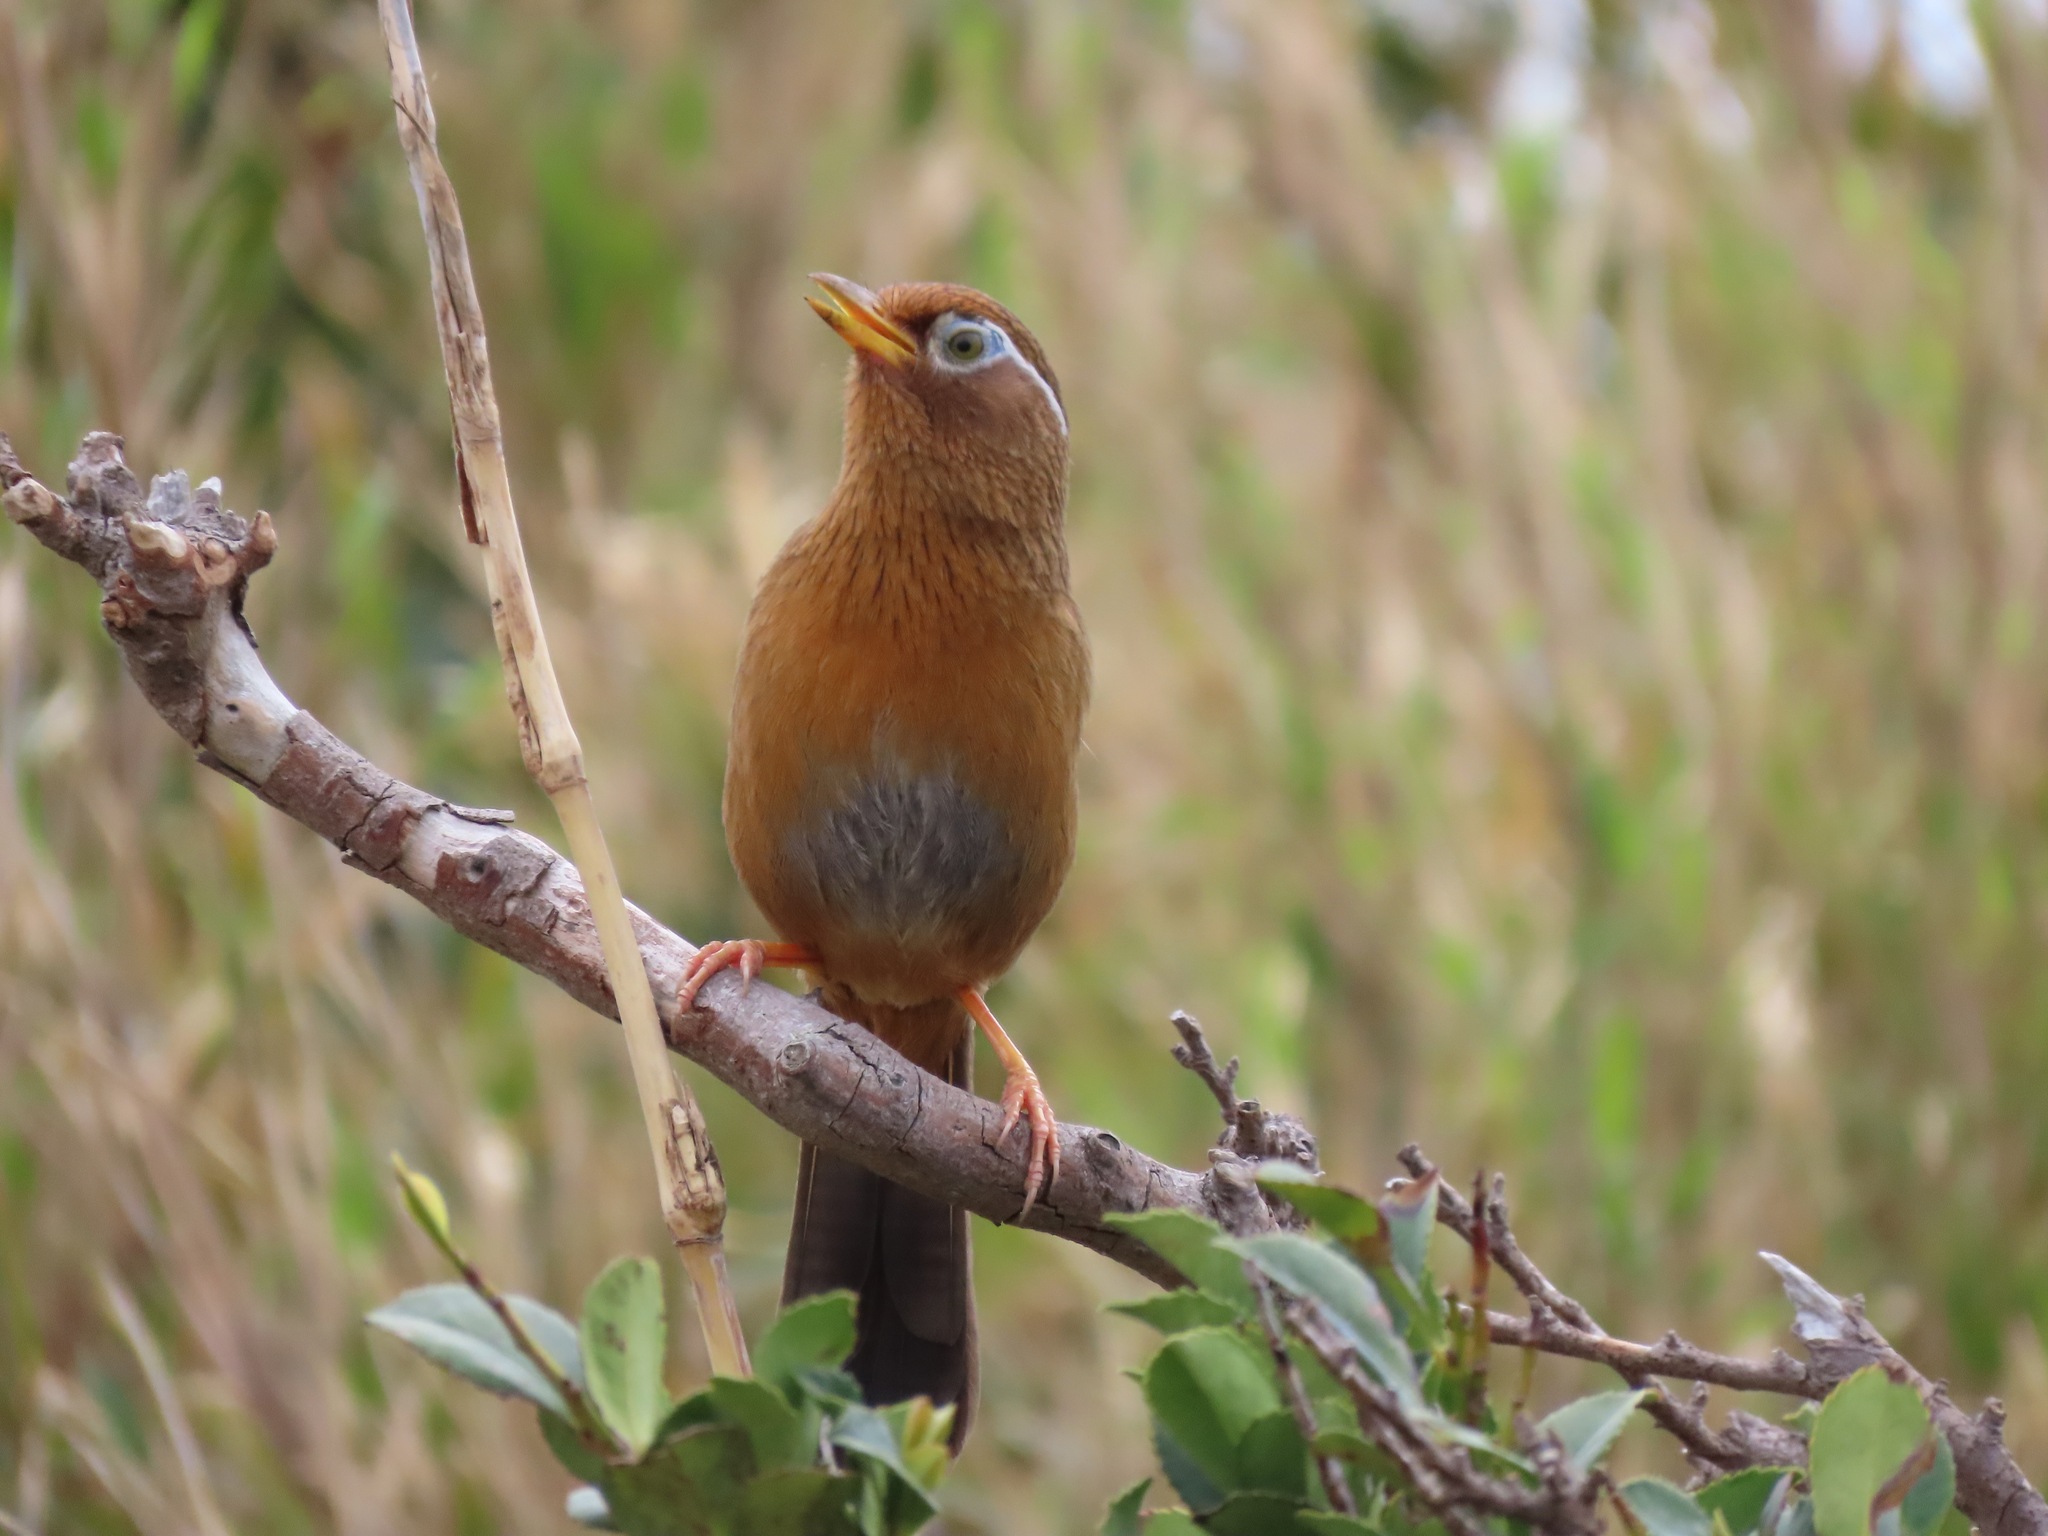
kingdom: Animalia
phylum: Chordata
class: Aves
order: Passeriformes
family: Leiothrichidae
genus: Garrulax
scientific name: Garrulax canorus
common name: Chinese hwamei
